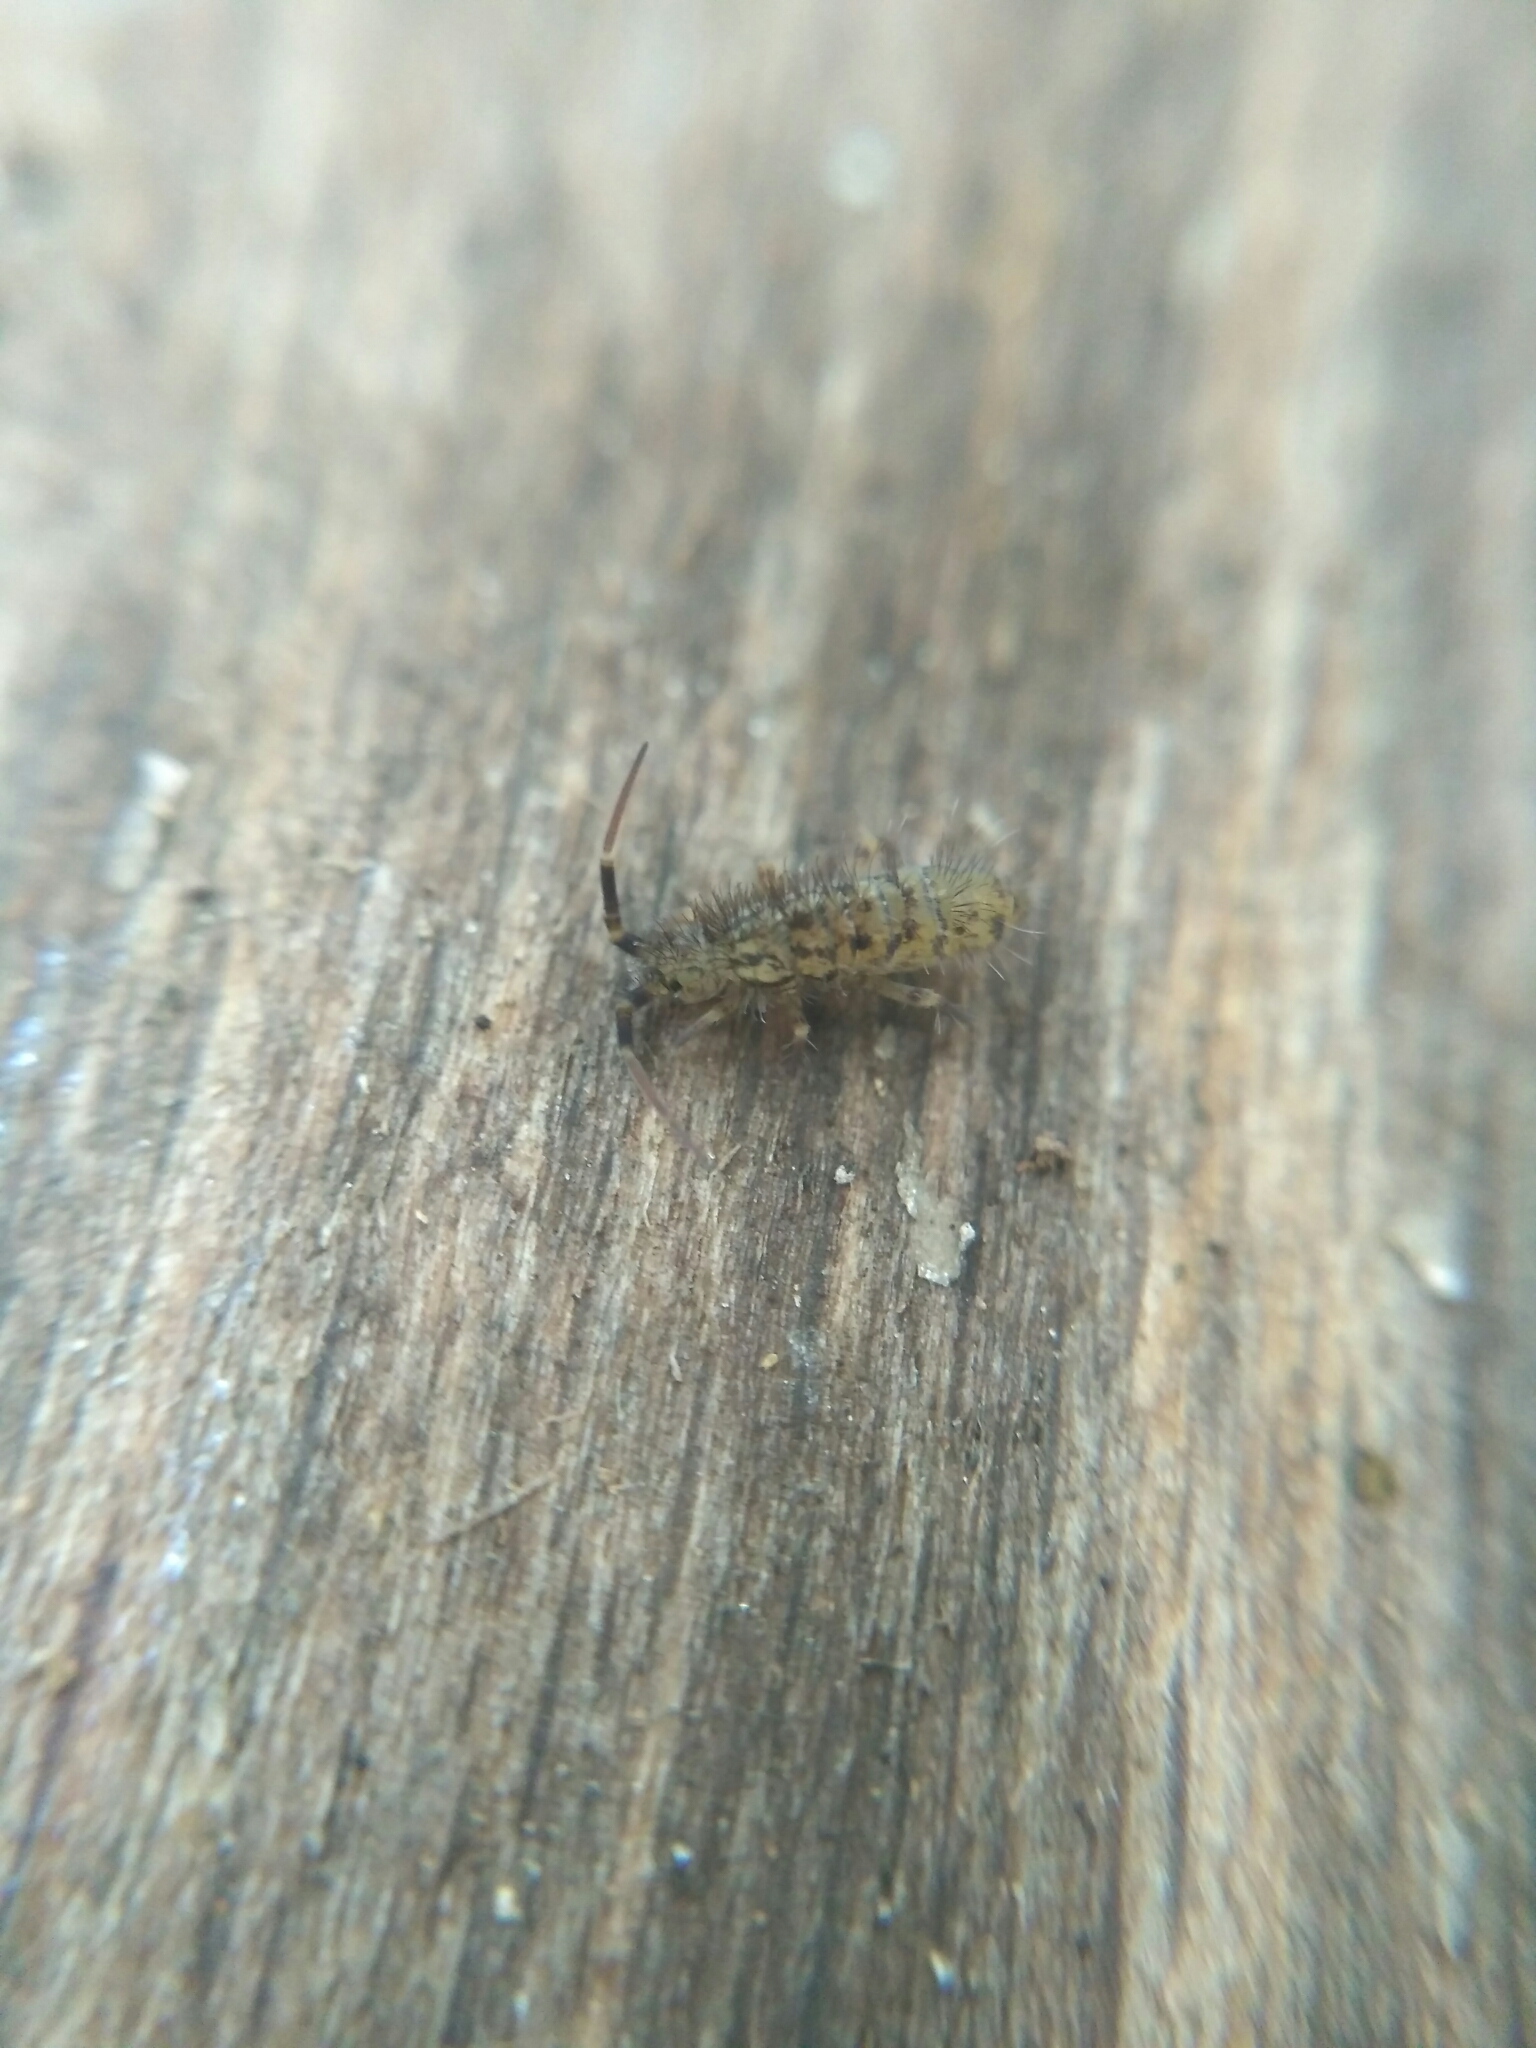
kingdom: Animalia
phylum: Arthropoda
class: Collembola
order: Entomobryomorpha
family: Orchesellidae
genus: Orchesella
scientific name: Orchesella villosa
